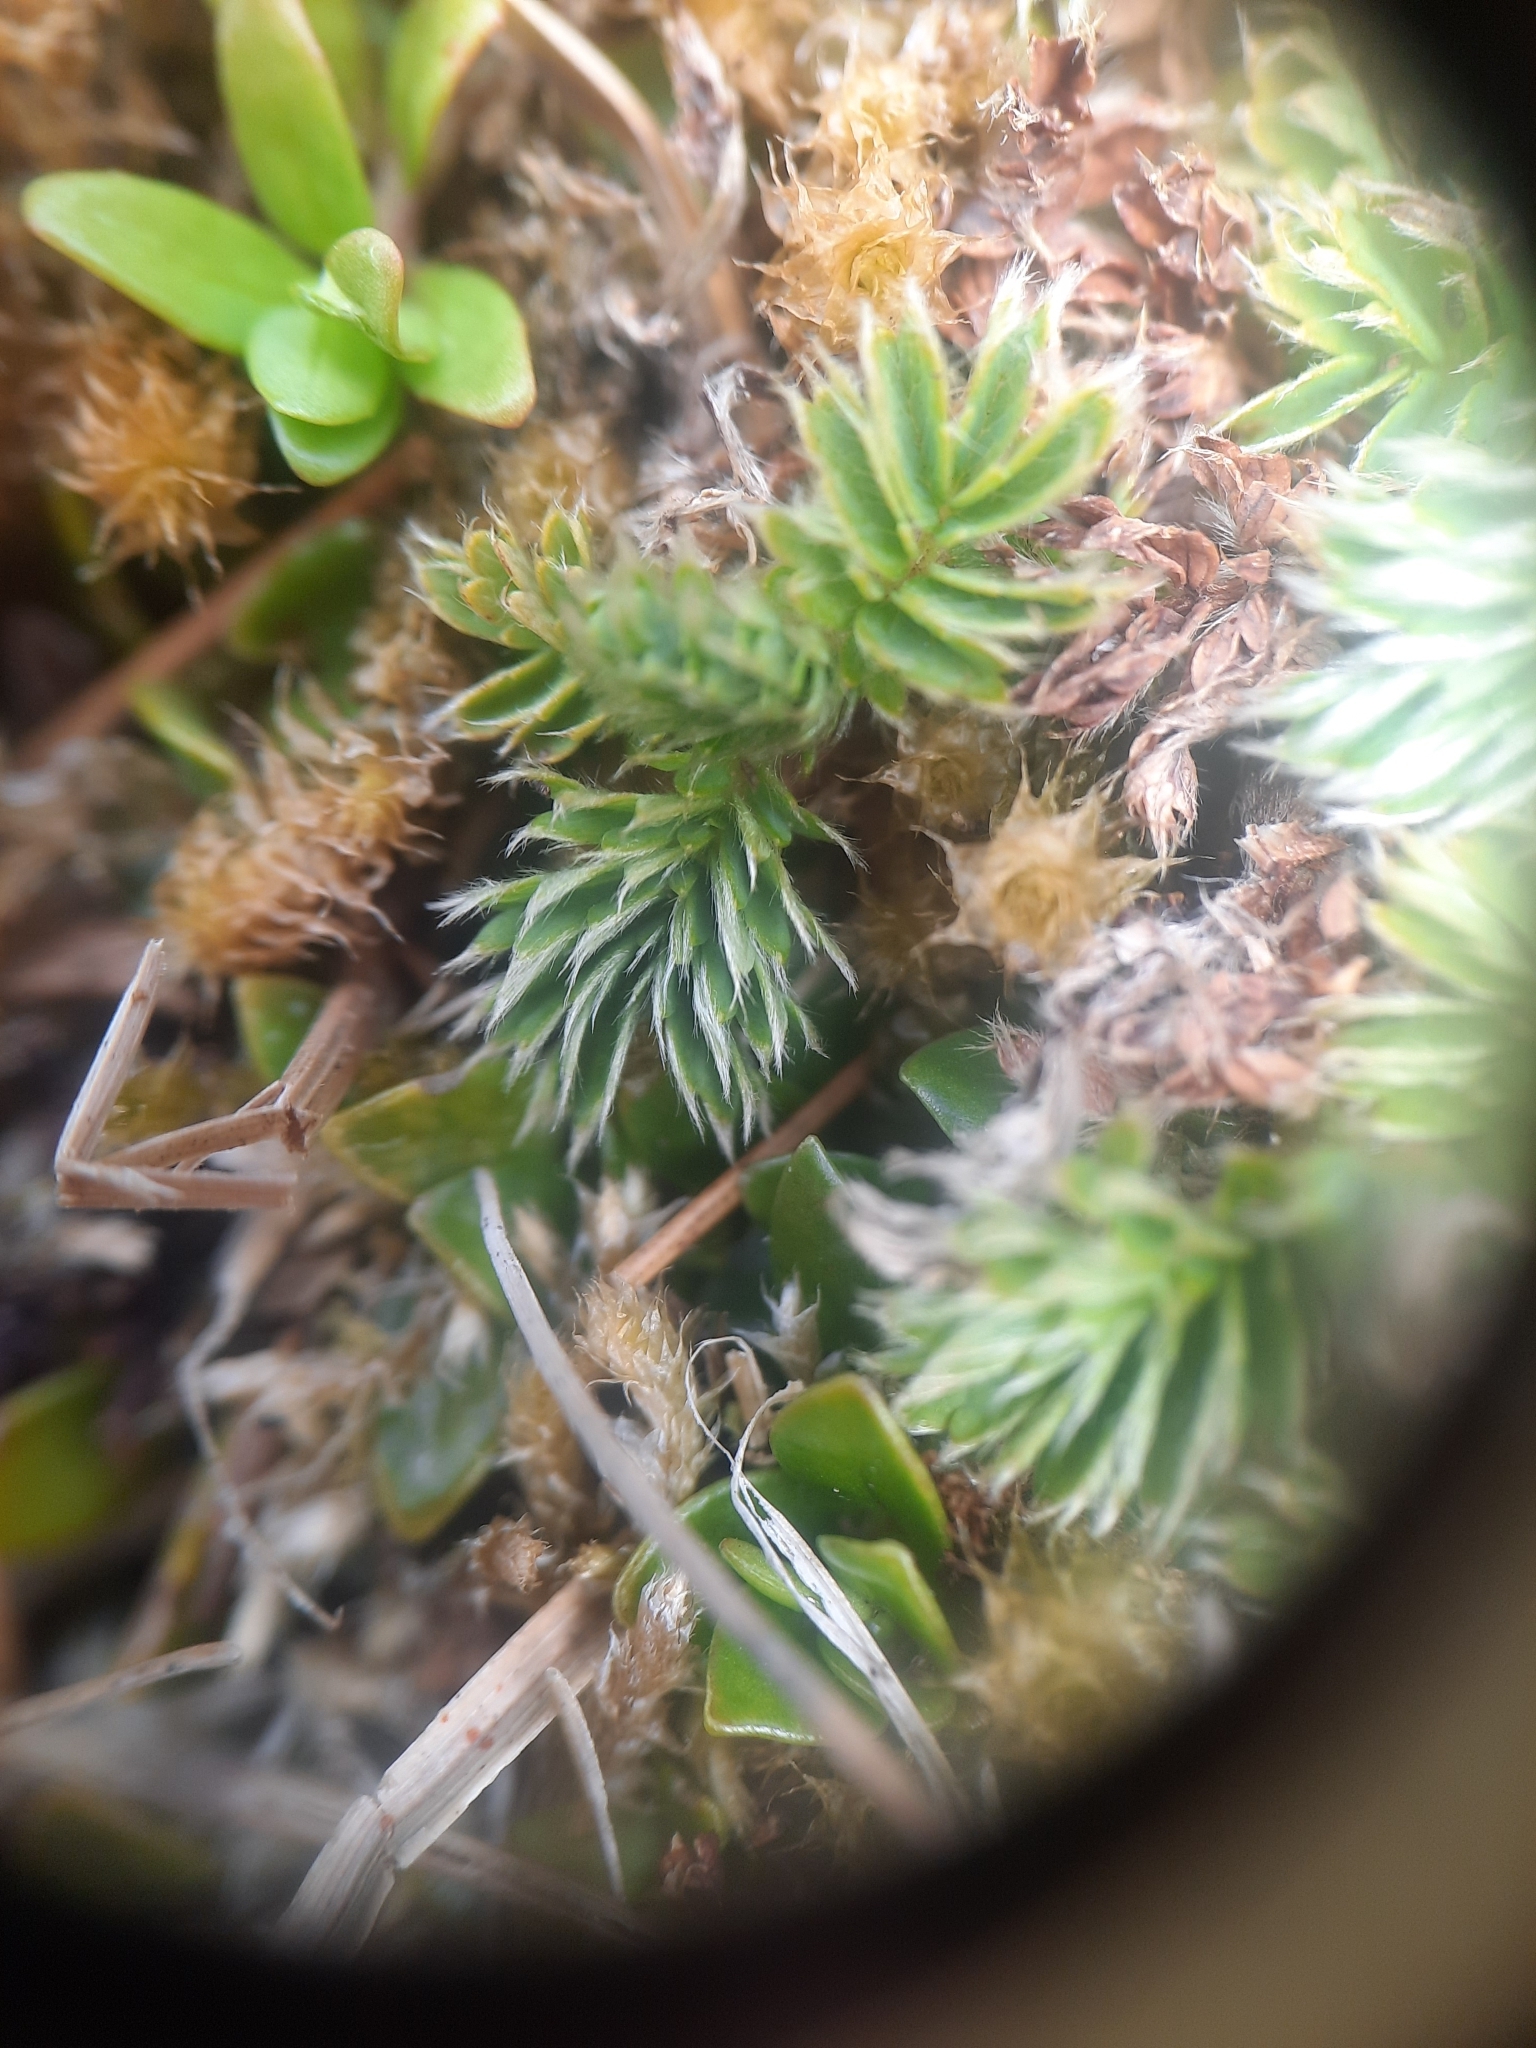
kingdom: Plantae
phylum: Tracheophyta
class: Magnoliopsida
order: Rosales
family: Rosaceae
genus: Acaena
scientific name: Acaena minor
